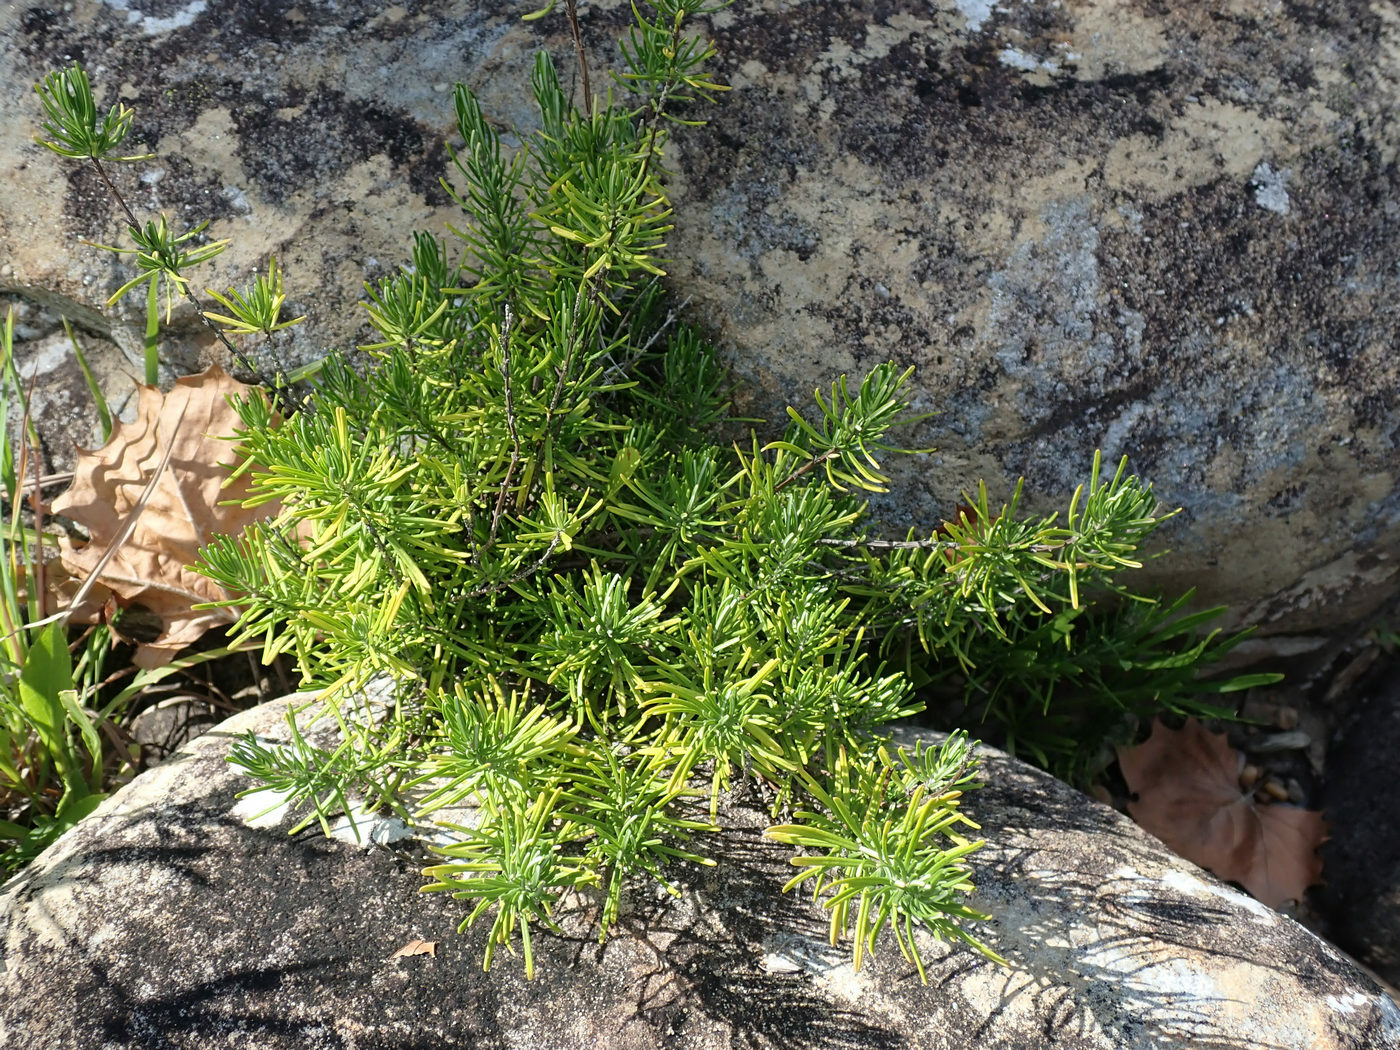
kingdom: Plantae
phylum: Tracheophyta
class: Magnoliopsida
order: Lamiales
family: Lamiaceae
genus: Conradina
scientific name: Conradina verticillata
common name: Cumberland-rosemary
